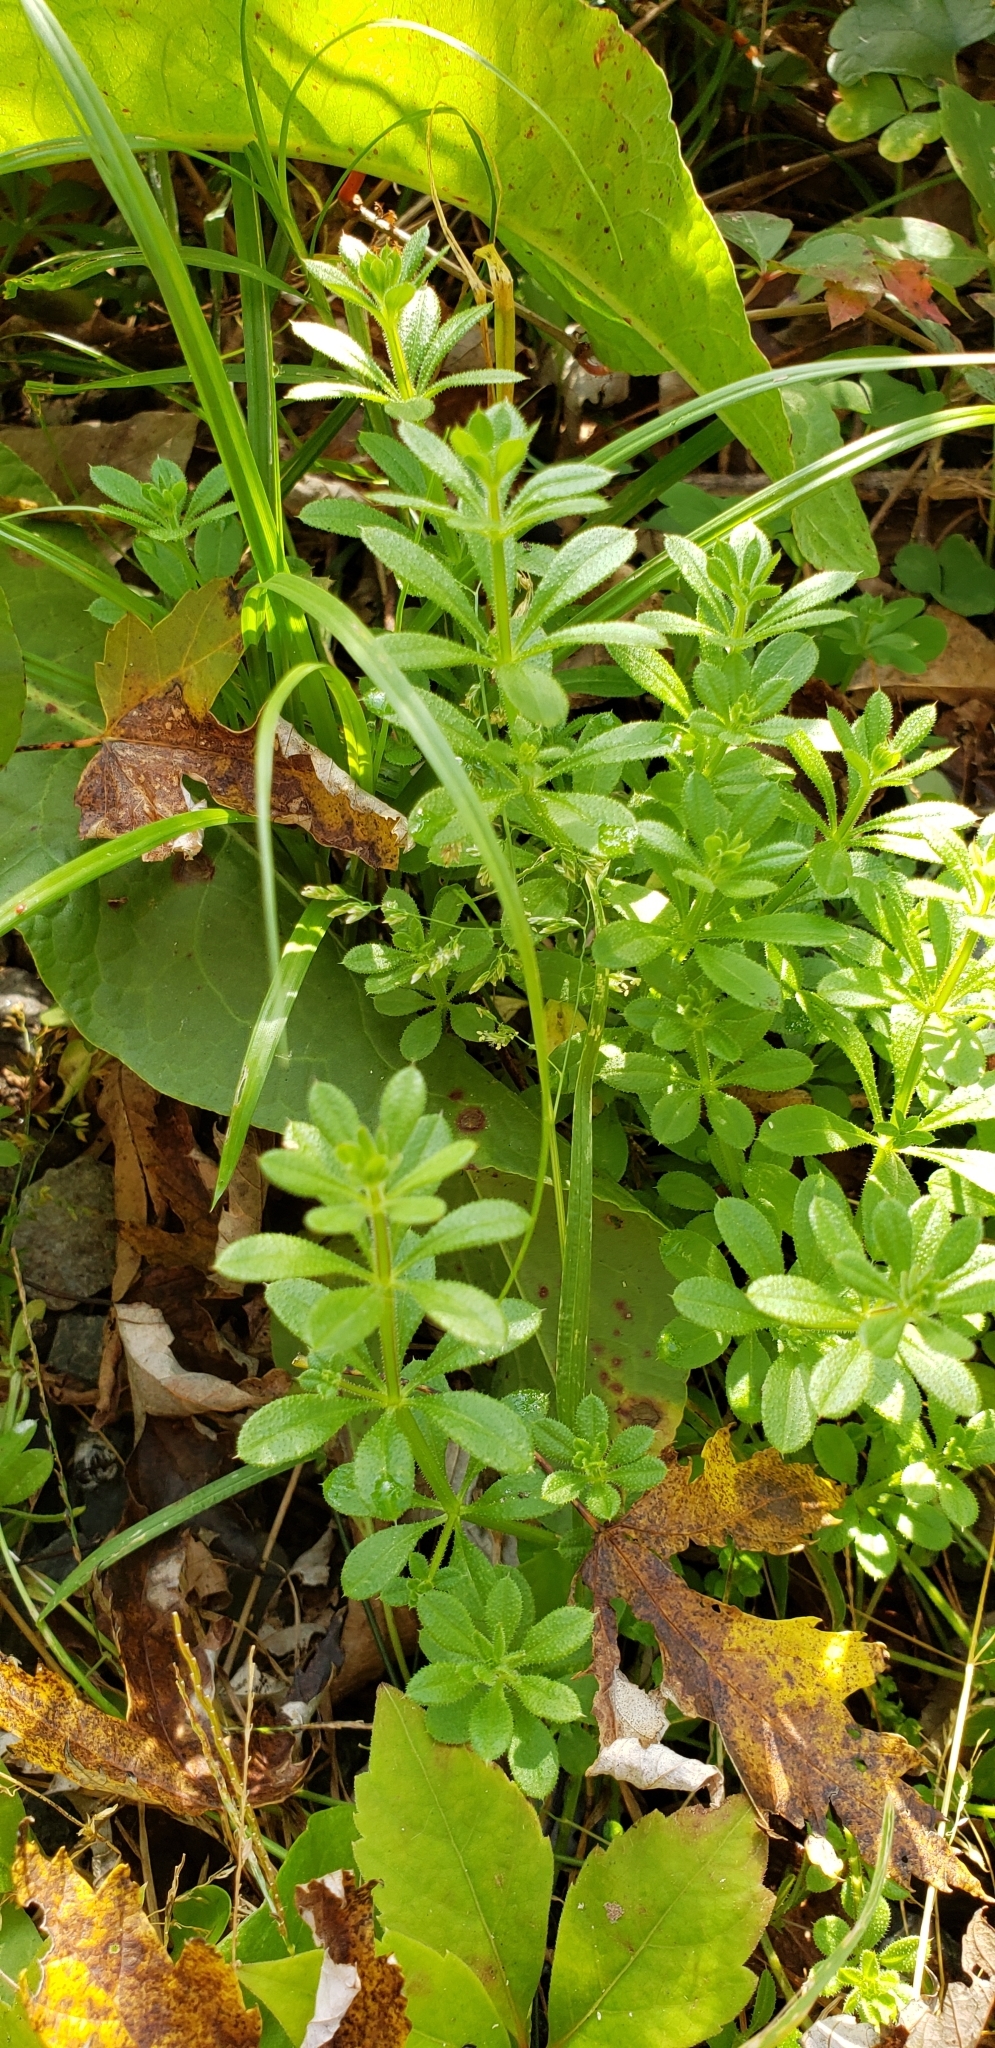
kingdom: Plantae
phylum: Tracheophyta
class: Magnoliopsida
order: Gentianales
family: Rubiaceae
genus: Galium
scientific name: Galium aparine
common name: Cleavers
